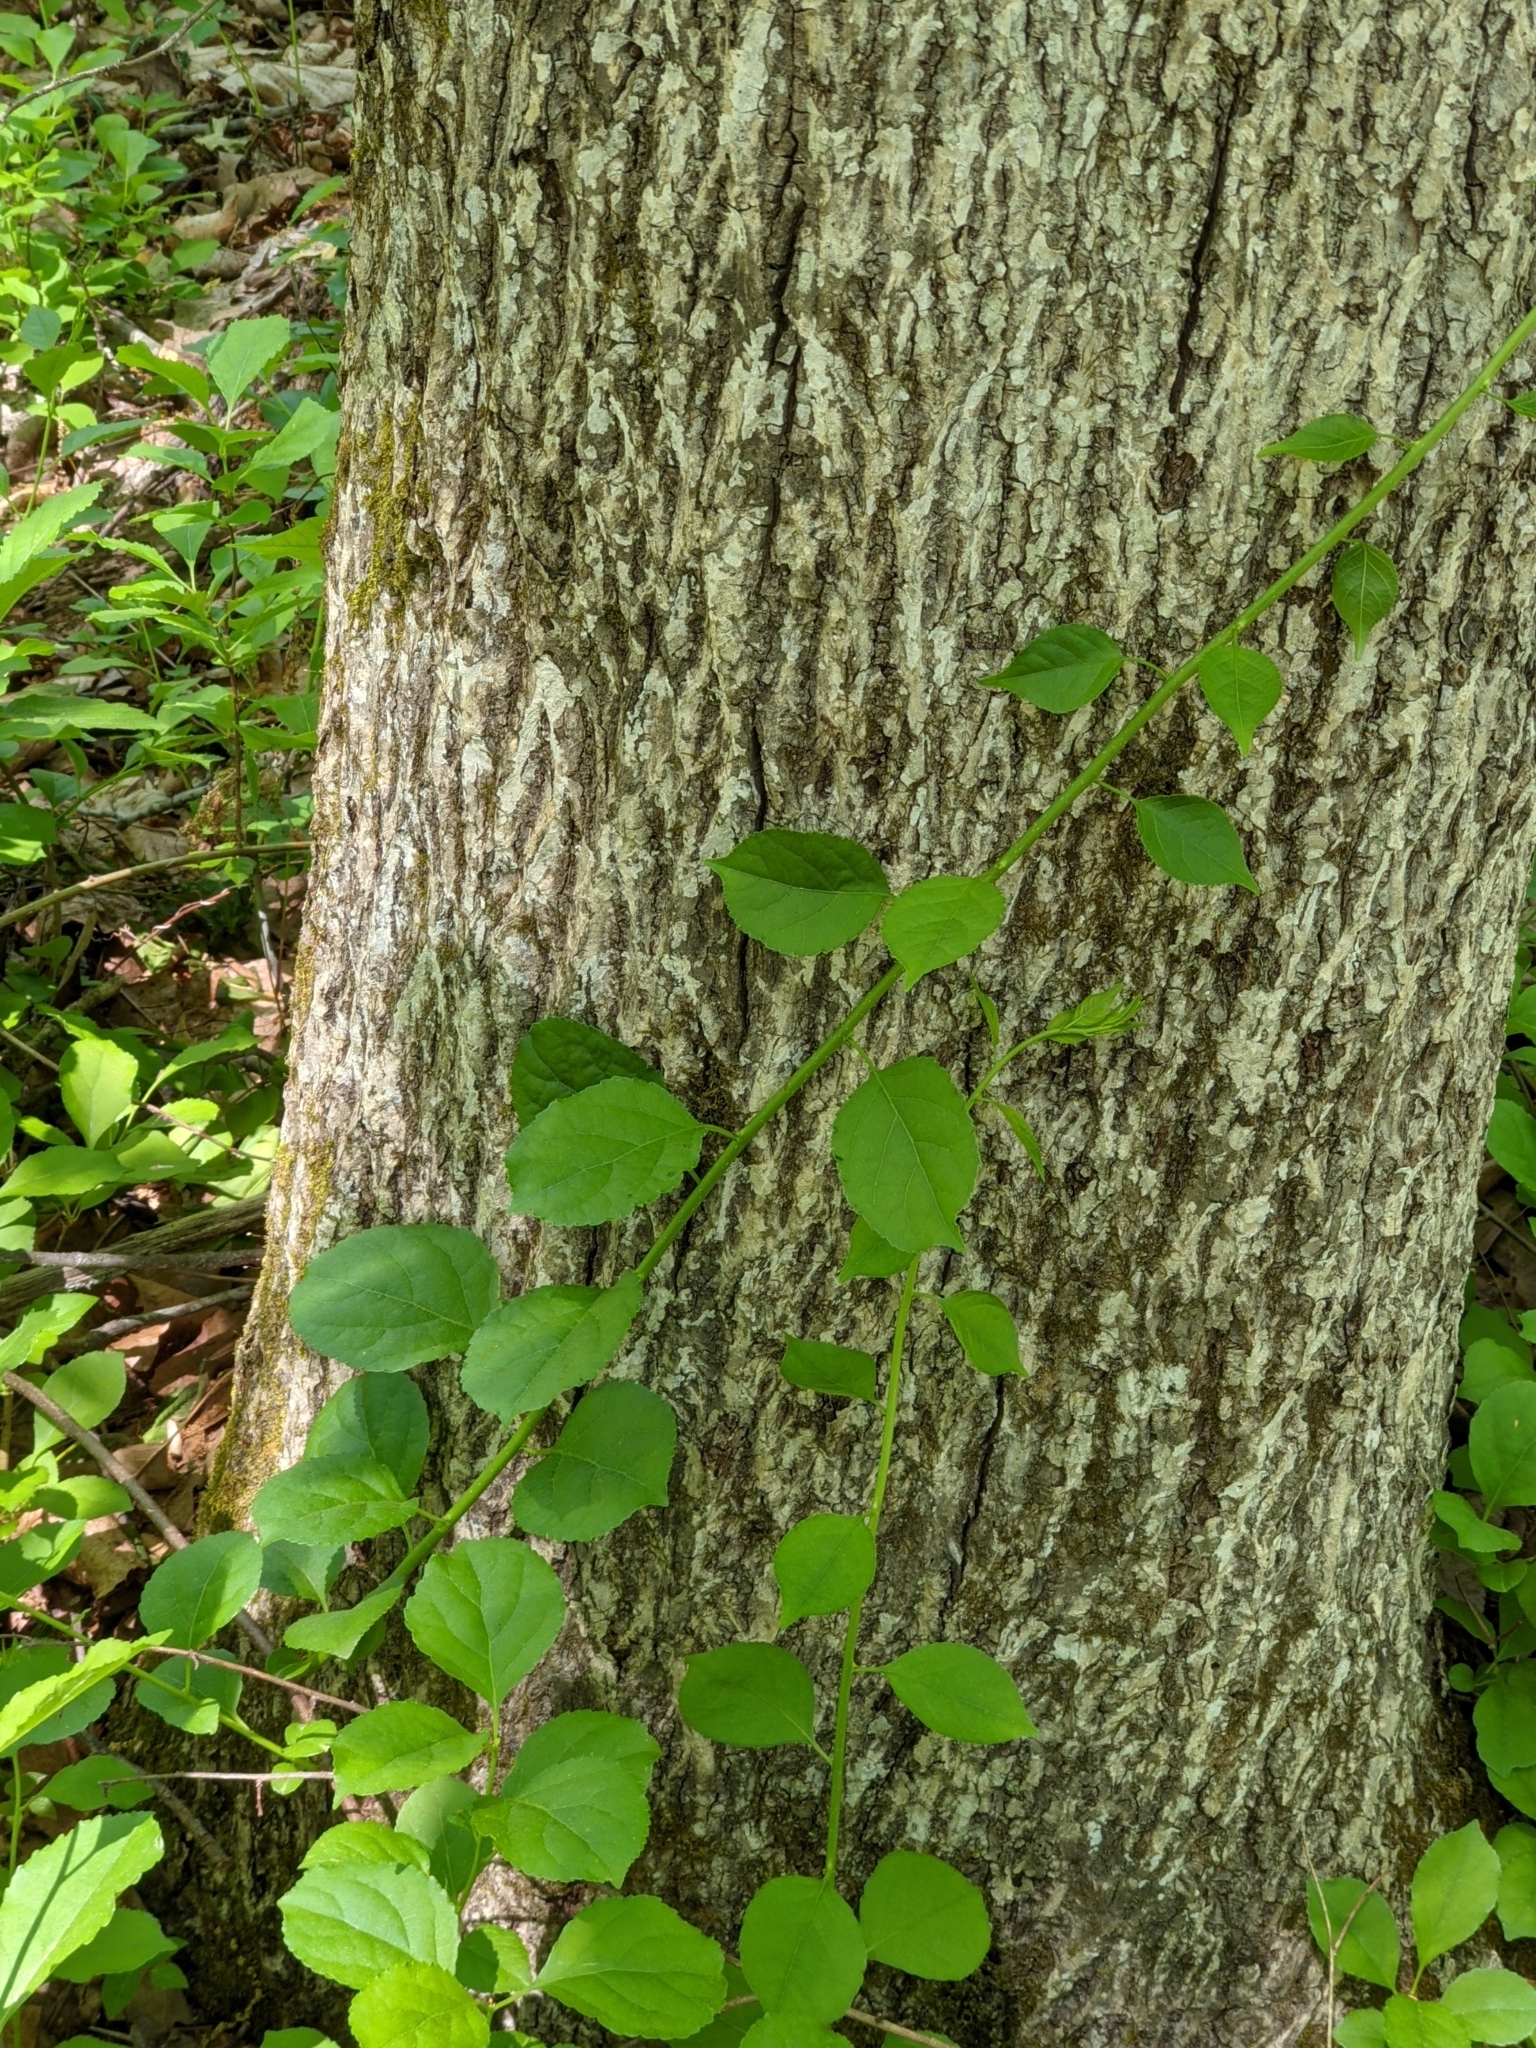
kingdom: Plantae
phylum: Tracheophyta
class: Magnoliopsida
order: Celastrales
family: Celastraceae
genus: Celastrus
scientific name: Celastrus orbiculatus
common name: Oriental bittersweet
